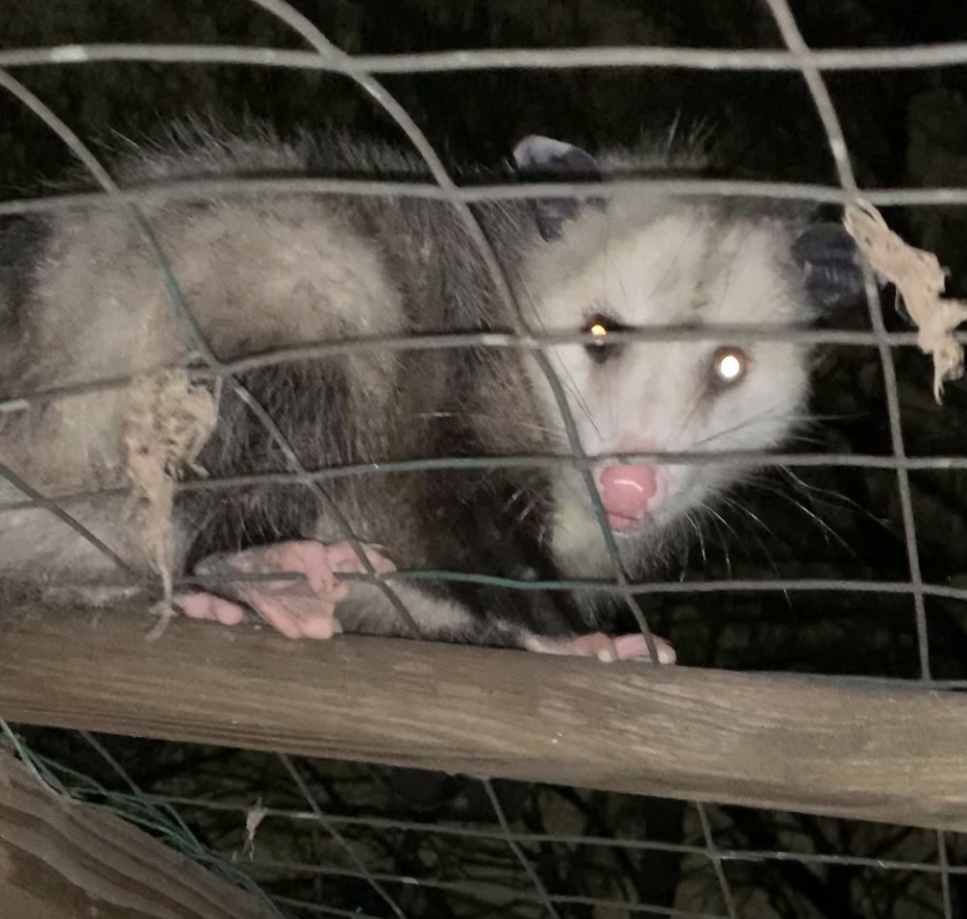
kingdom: Animalia
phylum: Chordata
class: Mammalia
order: Didelphimorphia
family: Didelphidae
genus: Didelphis
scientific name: Didelphis virginiana
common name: Virginia opossum
